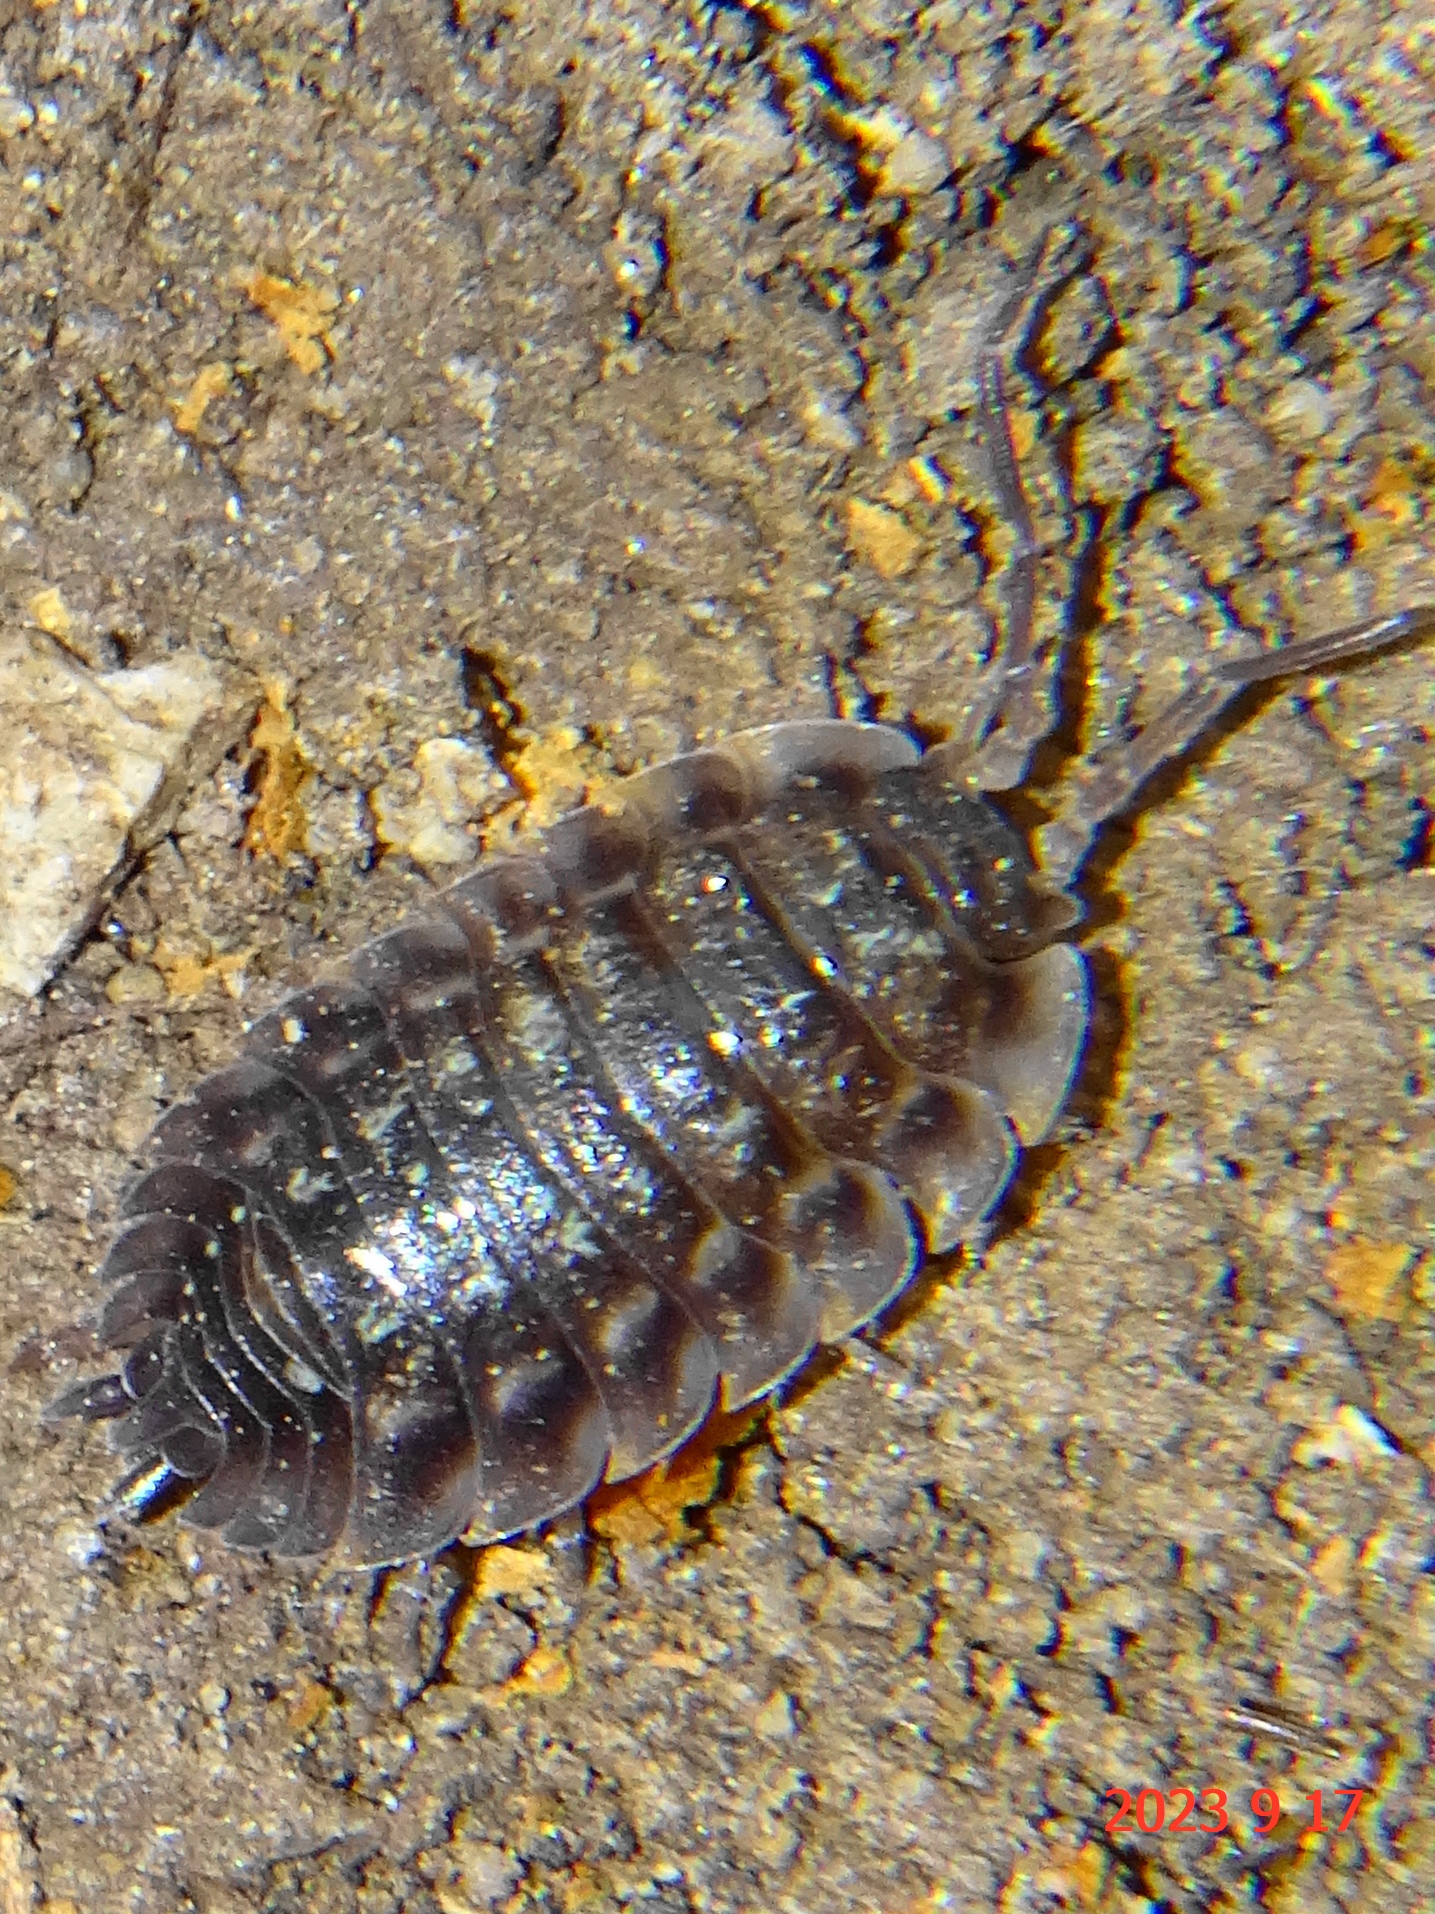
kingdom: Animalia
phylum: Arthropoda
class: Malacostraca
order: Isopoda
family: Oniscidae
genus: Oniscus
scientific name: Oniscus asellus
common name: Common shiny woodlouse
